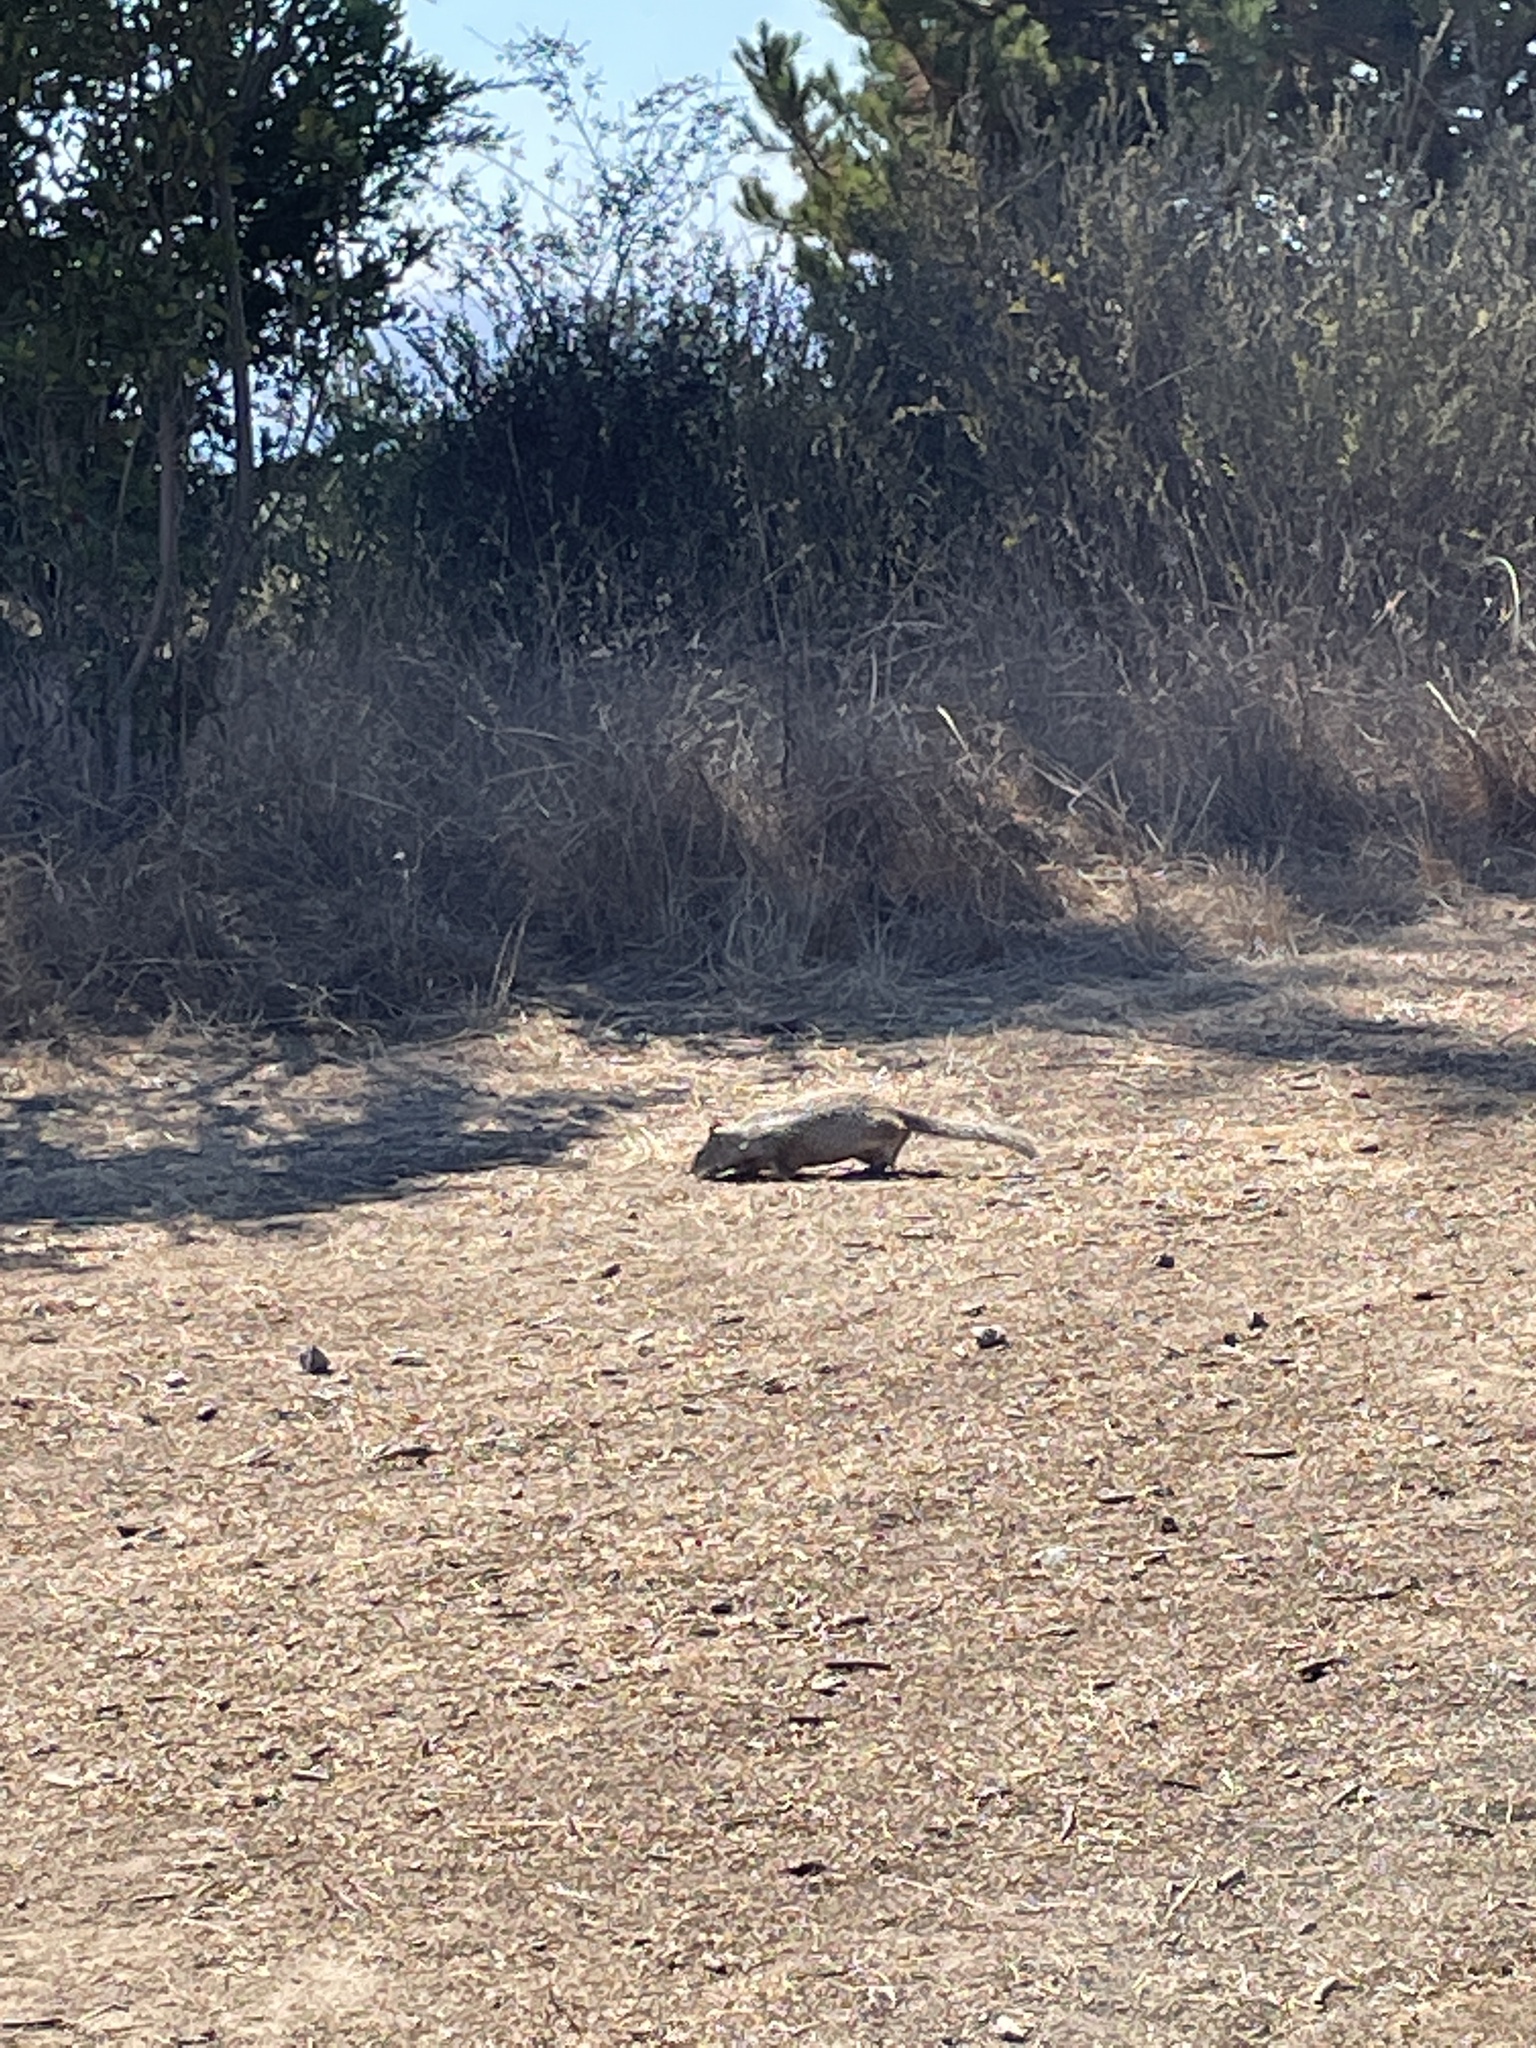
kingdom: Animalia
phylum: Chordata
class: Mammalia
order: Rodentia
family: Sciuridae
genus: Otospermophilus
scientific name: Otospermophilus beecheyi
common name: California ground squirrel
